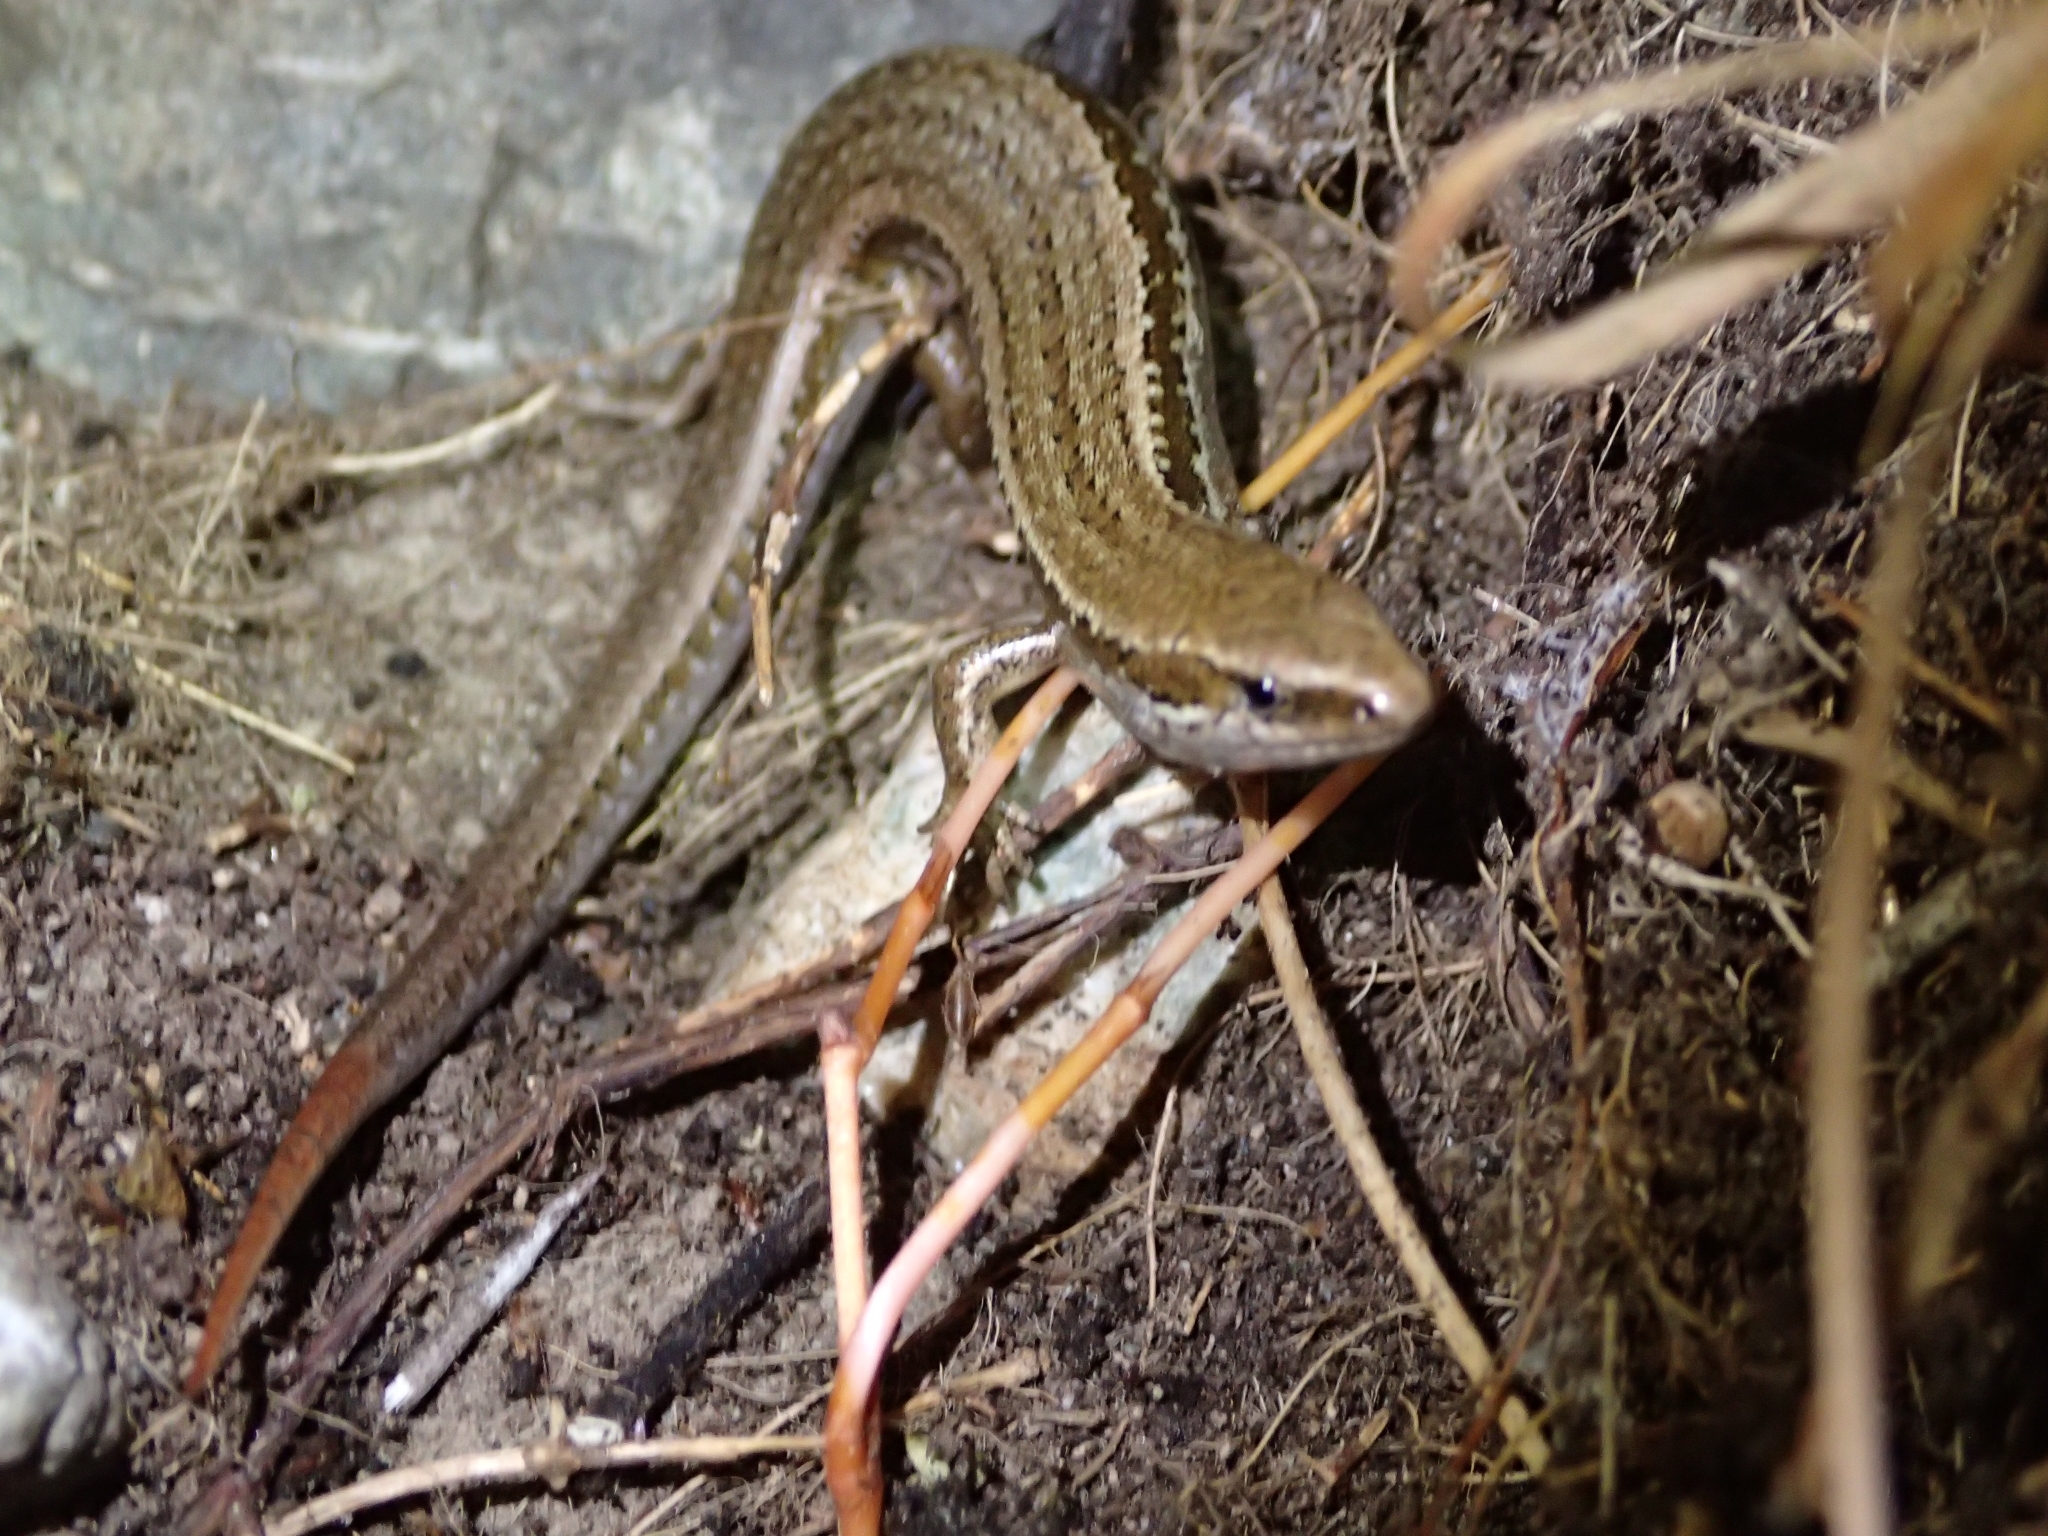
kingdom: Animalia
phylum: Chordata
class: Squamata
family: Scincidae
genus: Oligosoma
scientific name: Oligosoma polychroma
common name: Common new zealand skink
